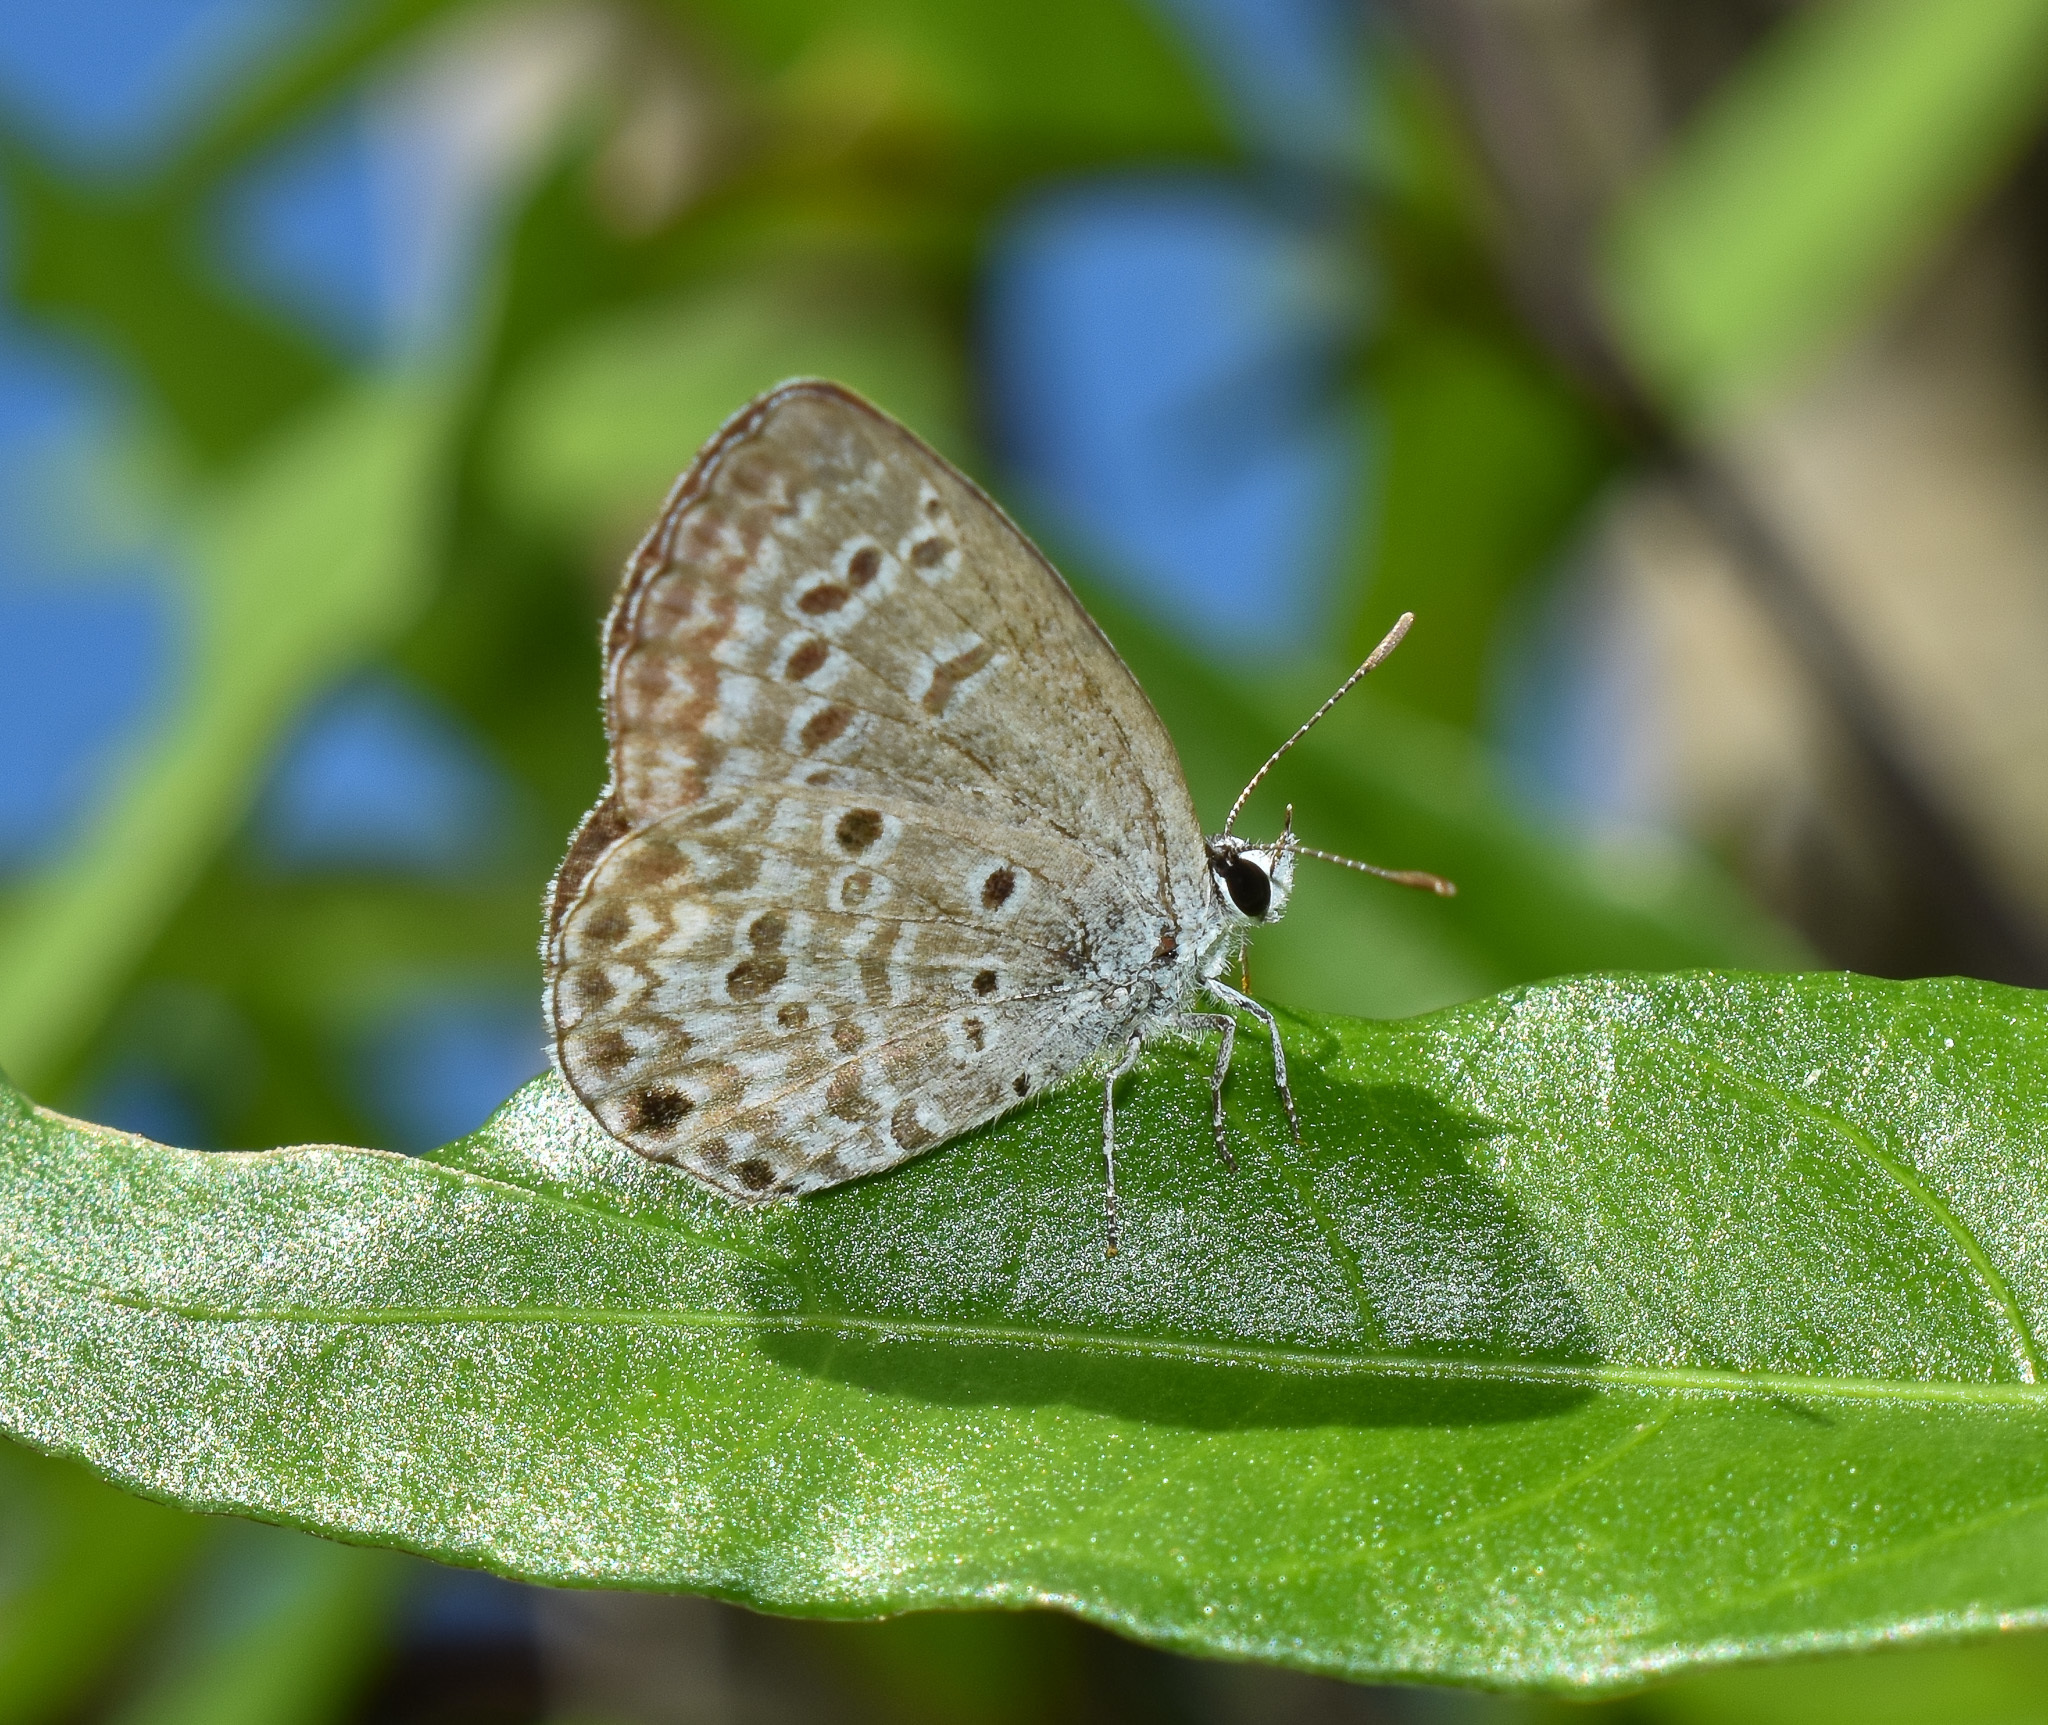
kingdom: Animalia
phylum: Arthropoda
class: Insecta
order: Lepidoptera
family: Lycaenidae
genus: Chilades
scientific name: Chilades laius
